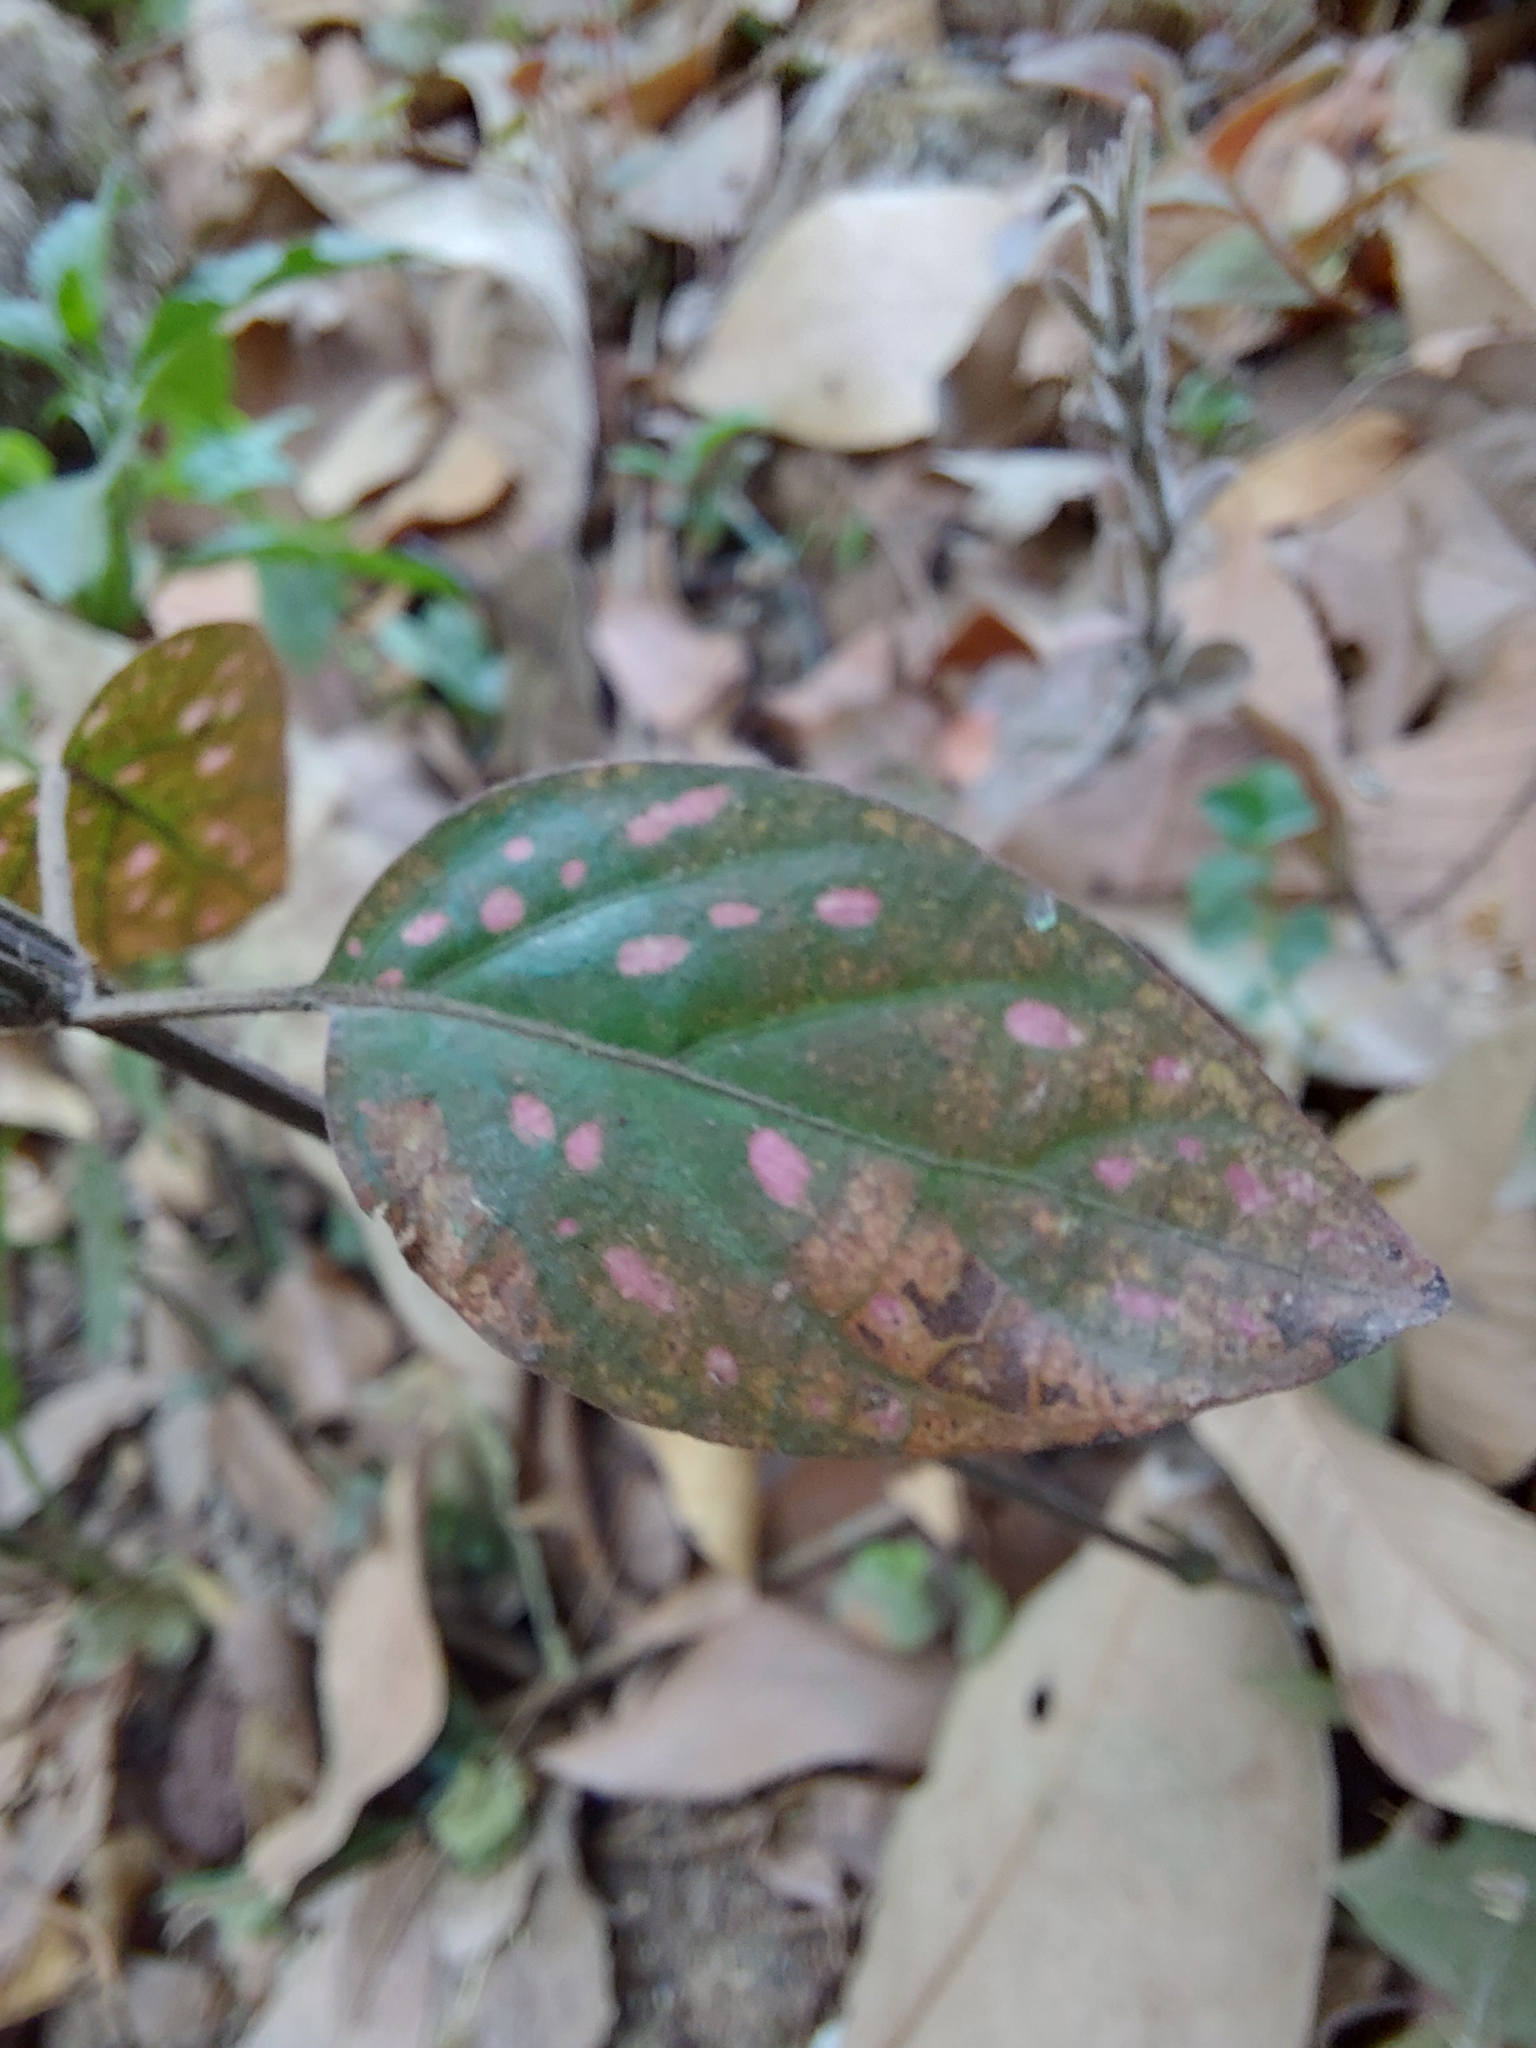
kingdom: Plantae
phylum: Tracheophyta
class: Magnoliopsida
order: Lamiales
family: Acanthaceae
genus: Hypoestes
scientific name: Hypoestes phyllostachya
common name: Polkadot-plant
